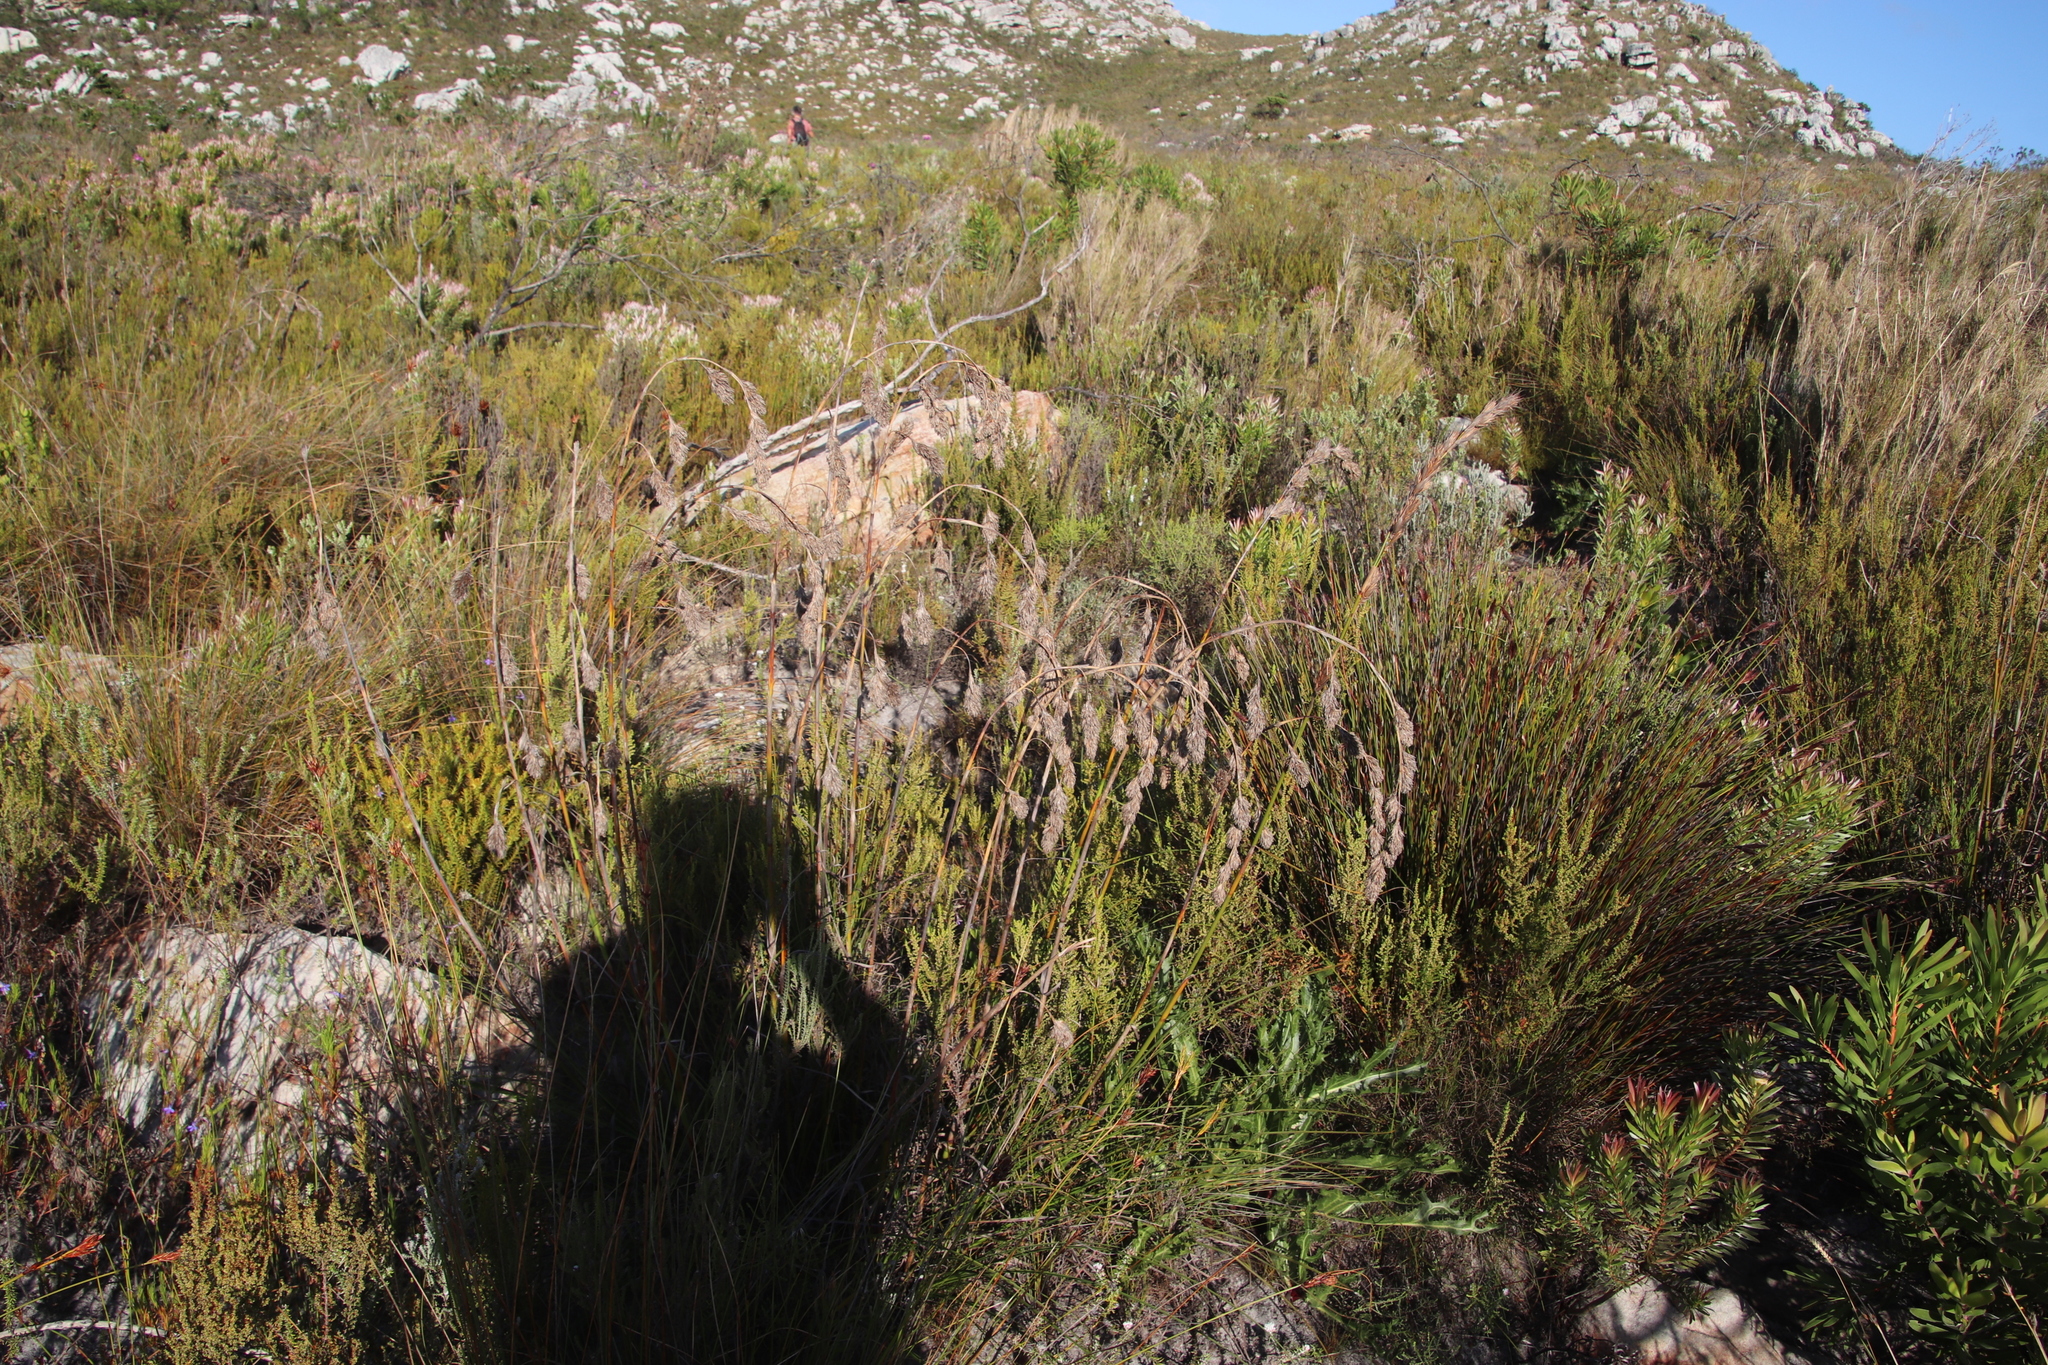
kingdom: Plantae
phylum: Tracheophyta
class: Liliopsida
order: Poales
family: Cyperaceae
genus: Tetraria
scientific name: Tetraria bromoides
